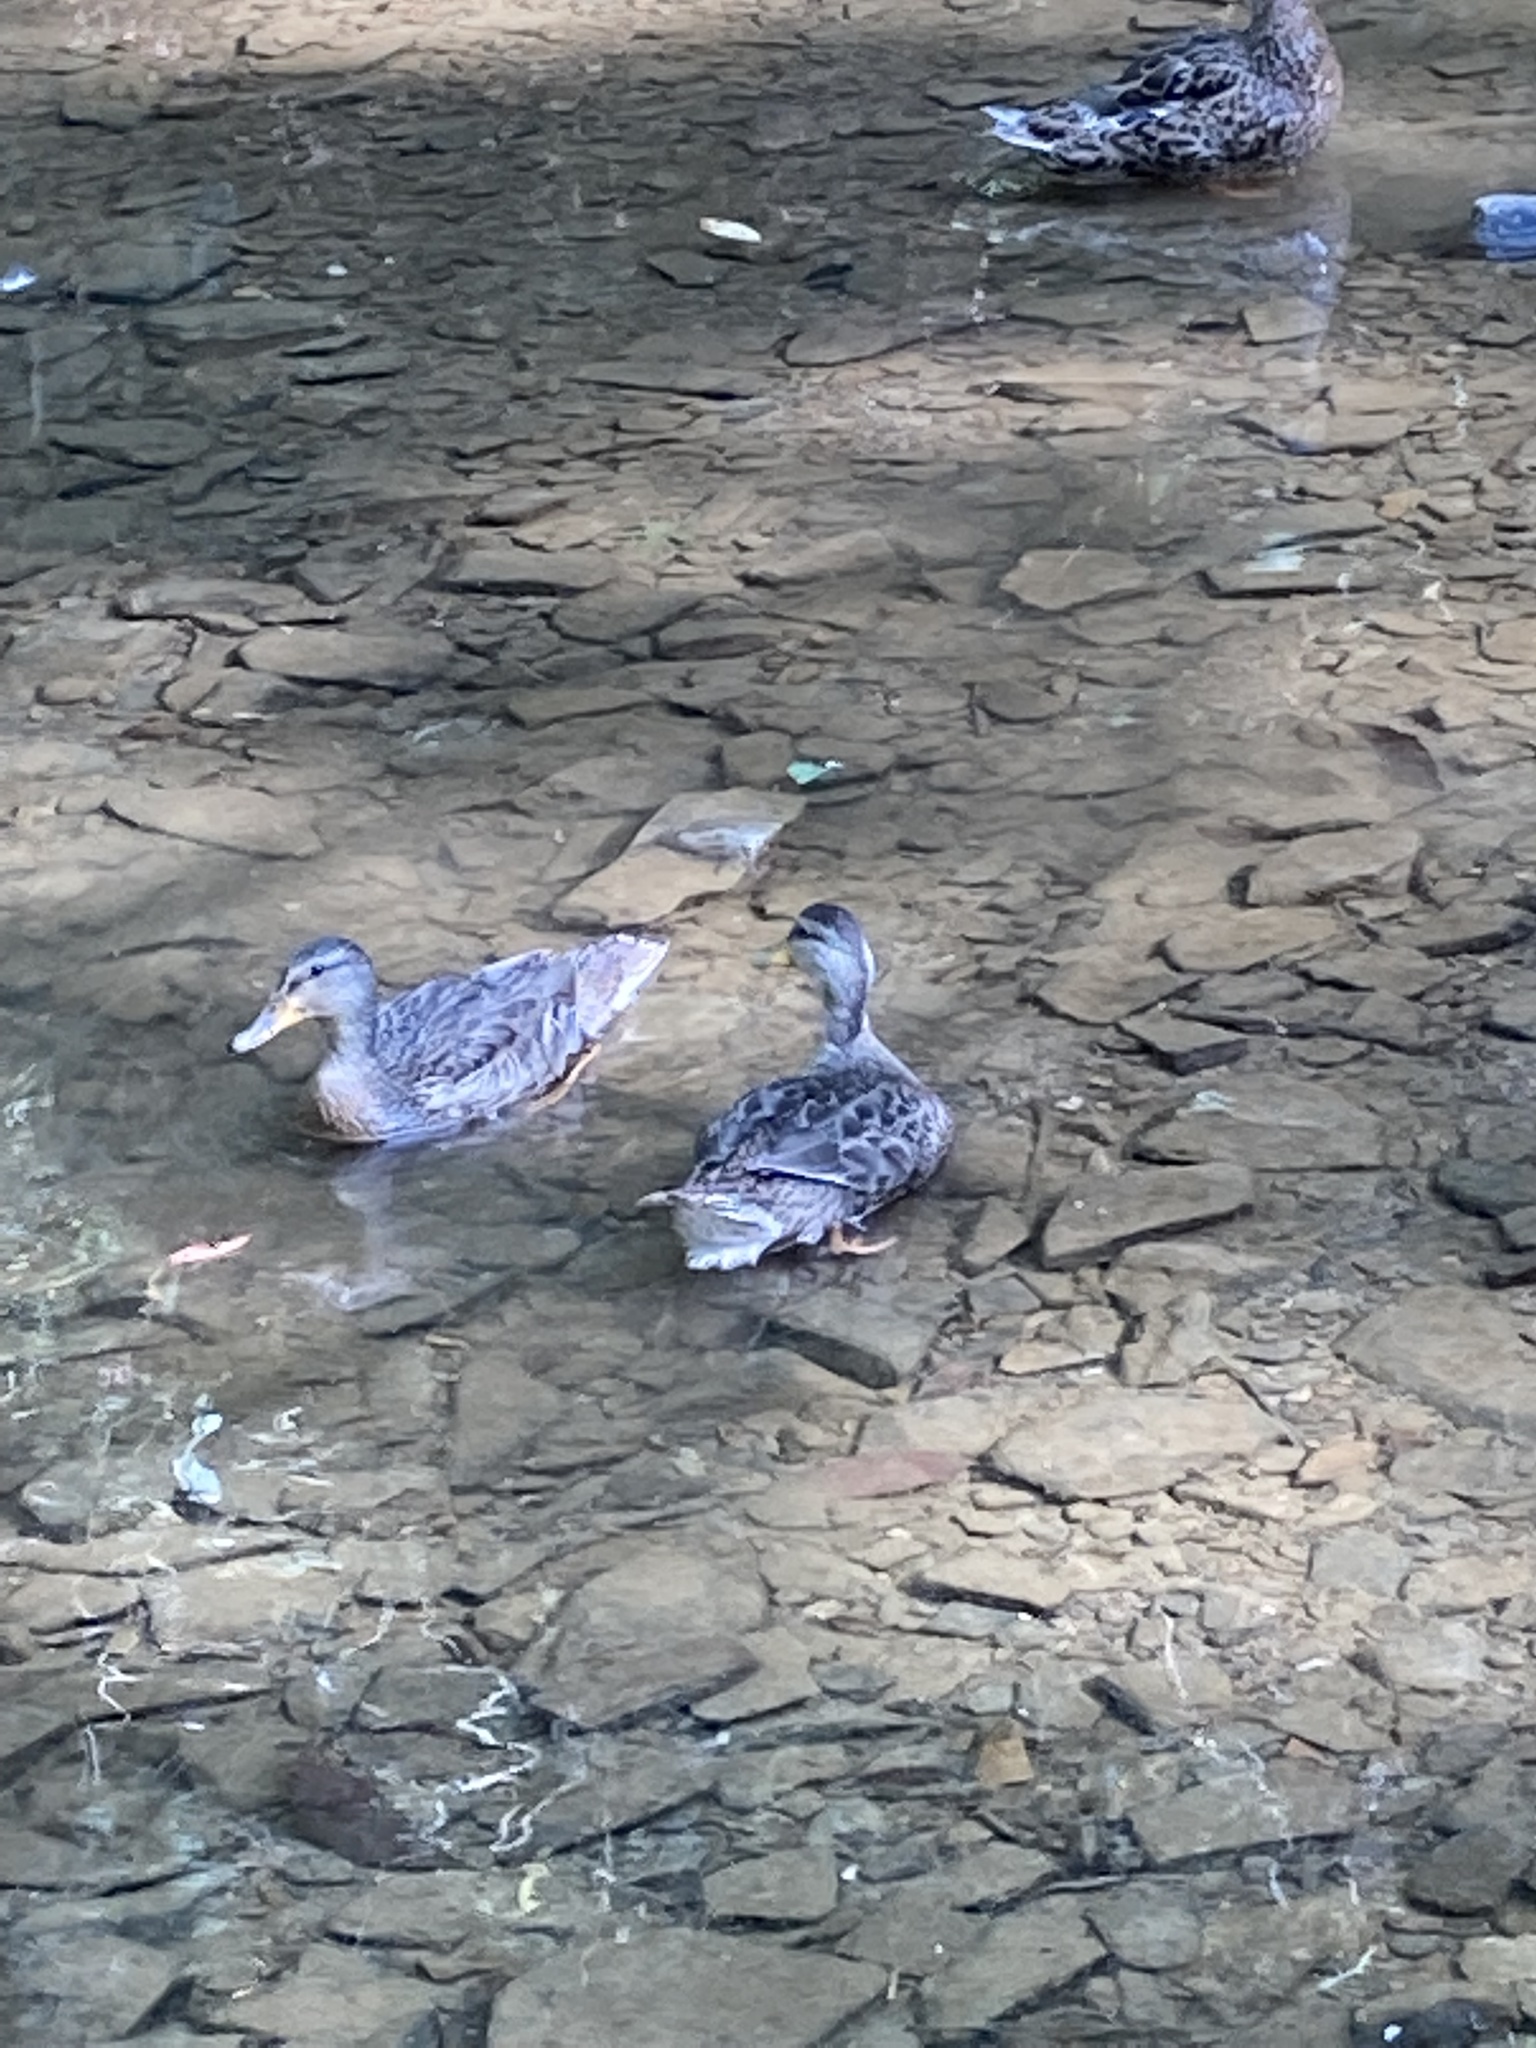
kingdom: Animalia
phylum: Chordata
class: Aves
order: Anseriformes
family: Anatidae
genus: Anas
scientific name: Anas platyrhynchos
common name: Mallard
